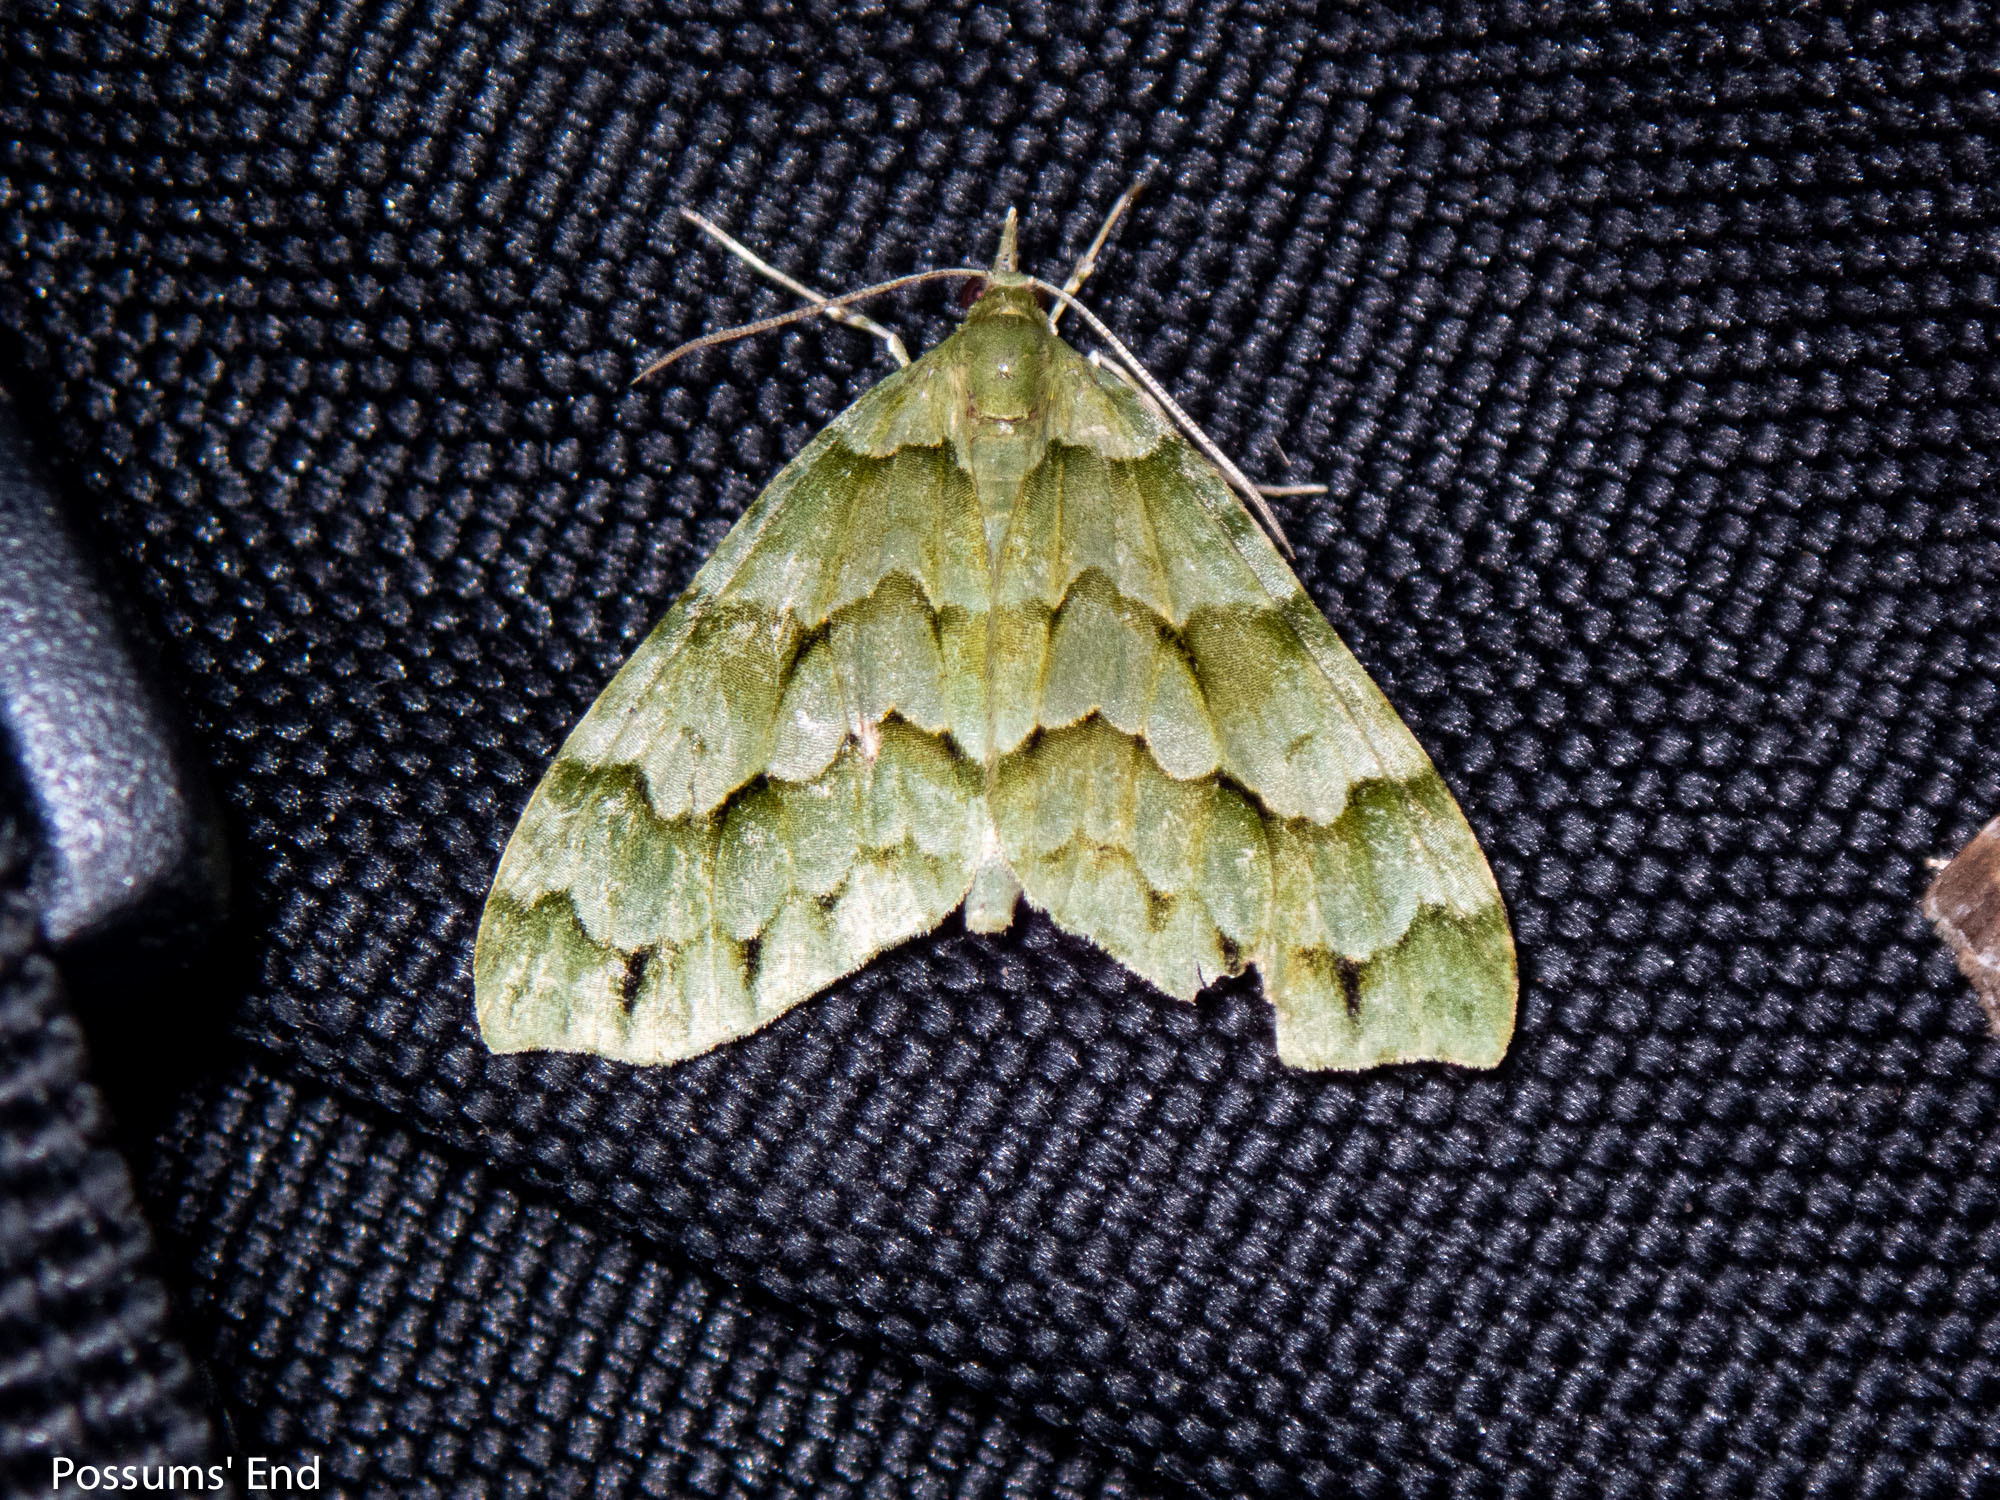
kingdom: Animalia
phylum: Arthropoda
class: Insecta
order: Lepidoptera
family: Geometridae
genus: Tatosoma
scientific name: Tatosoma lestevata
